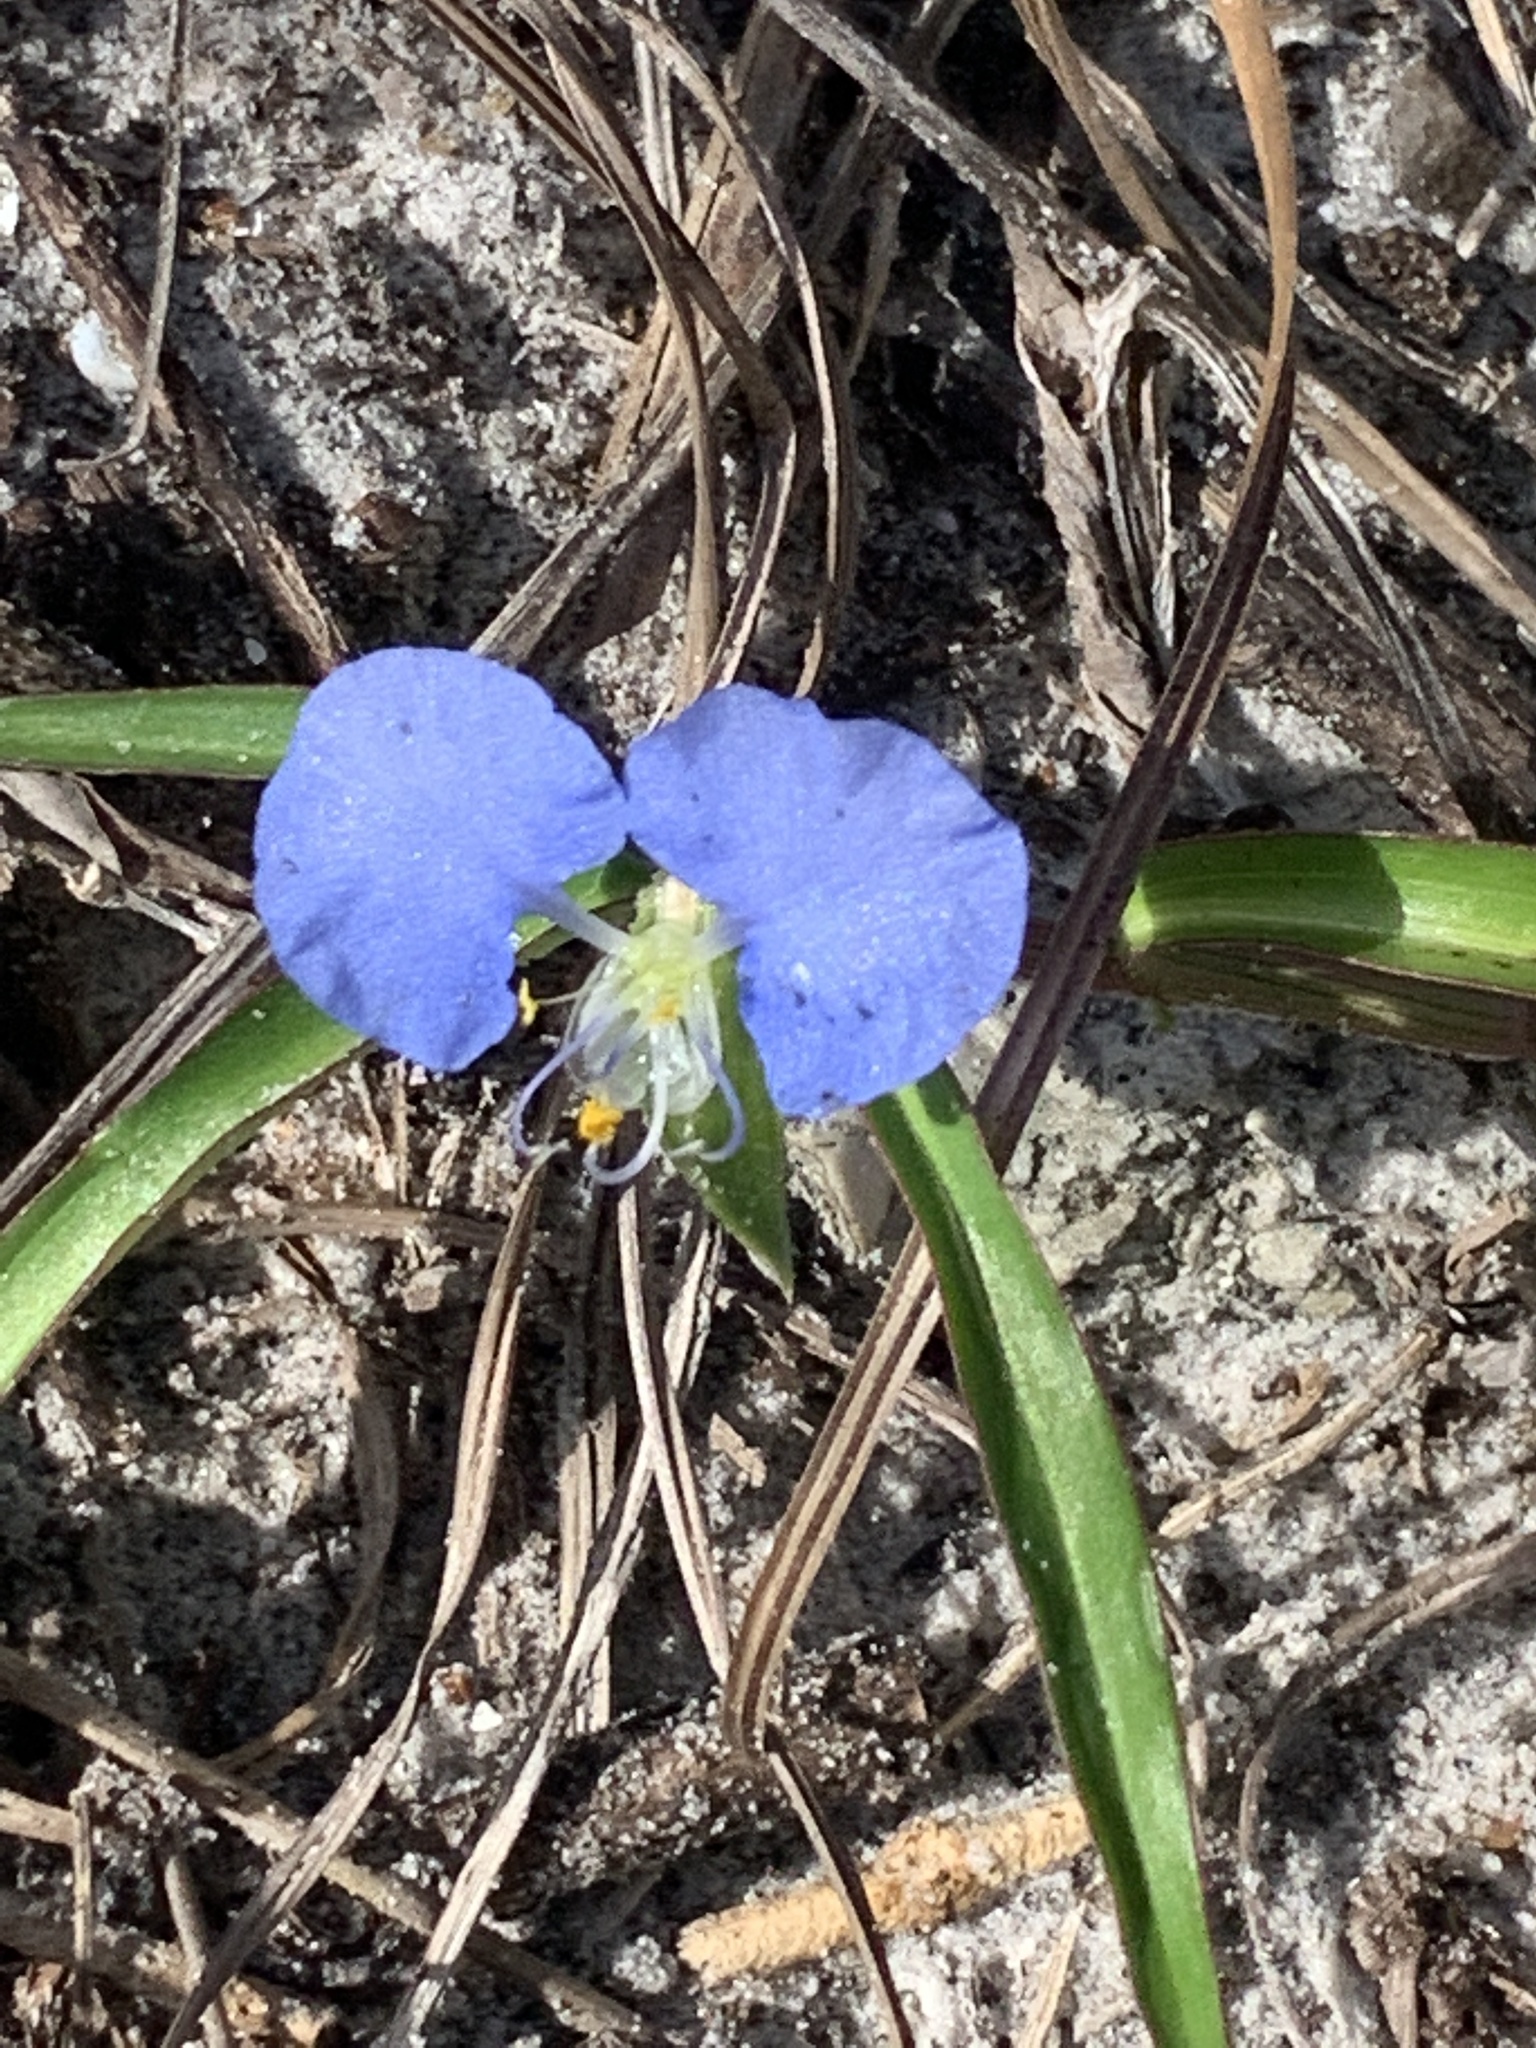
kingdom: Plantae
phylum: Tracheophyta
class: Liliopsida
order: Commelinales
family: Commelinaceae
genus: Commelina
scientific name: Commelina erecta
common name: Blousel blommetjie
